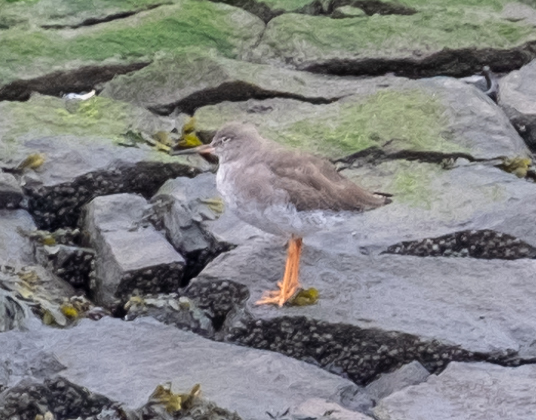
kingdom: Animalia
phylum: Chordata
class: Aves
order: Charadriiformes
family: Scolopacidae
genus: Tringa
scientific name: Tringa totanus
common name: Common redshank
